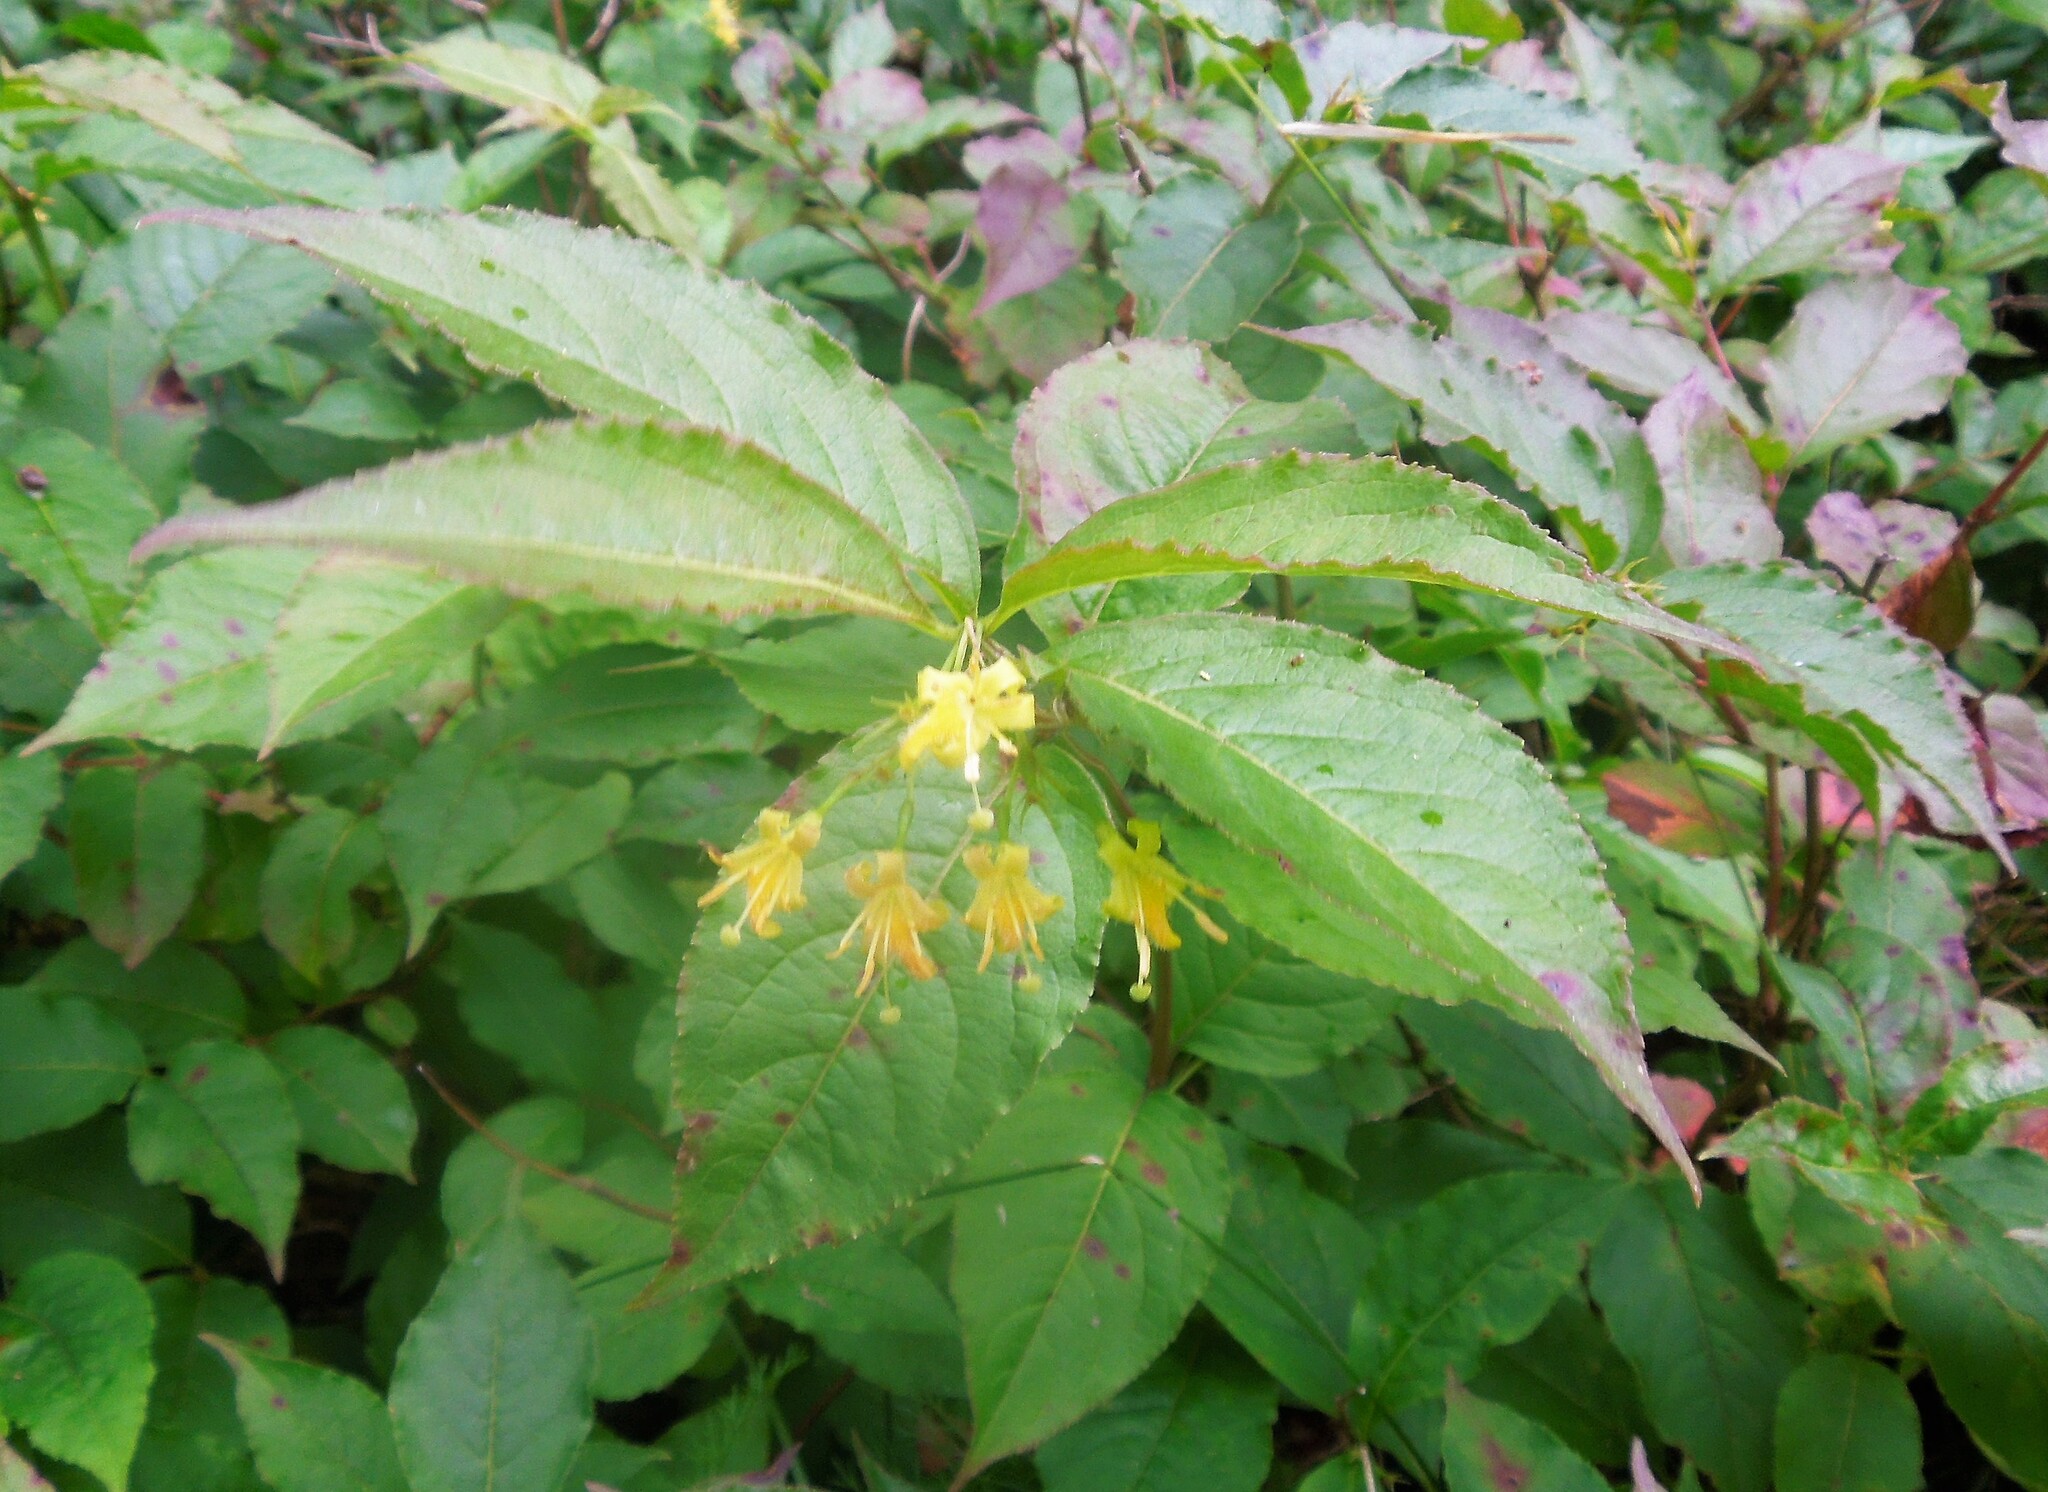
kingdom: Plantae
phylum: Tracheophyta
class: Magnoliopsida
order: Dipsacales
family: Caprifoliaceae
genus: Diervilla
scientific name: Diervilla lonicera
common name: Bush-honeysuckle
